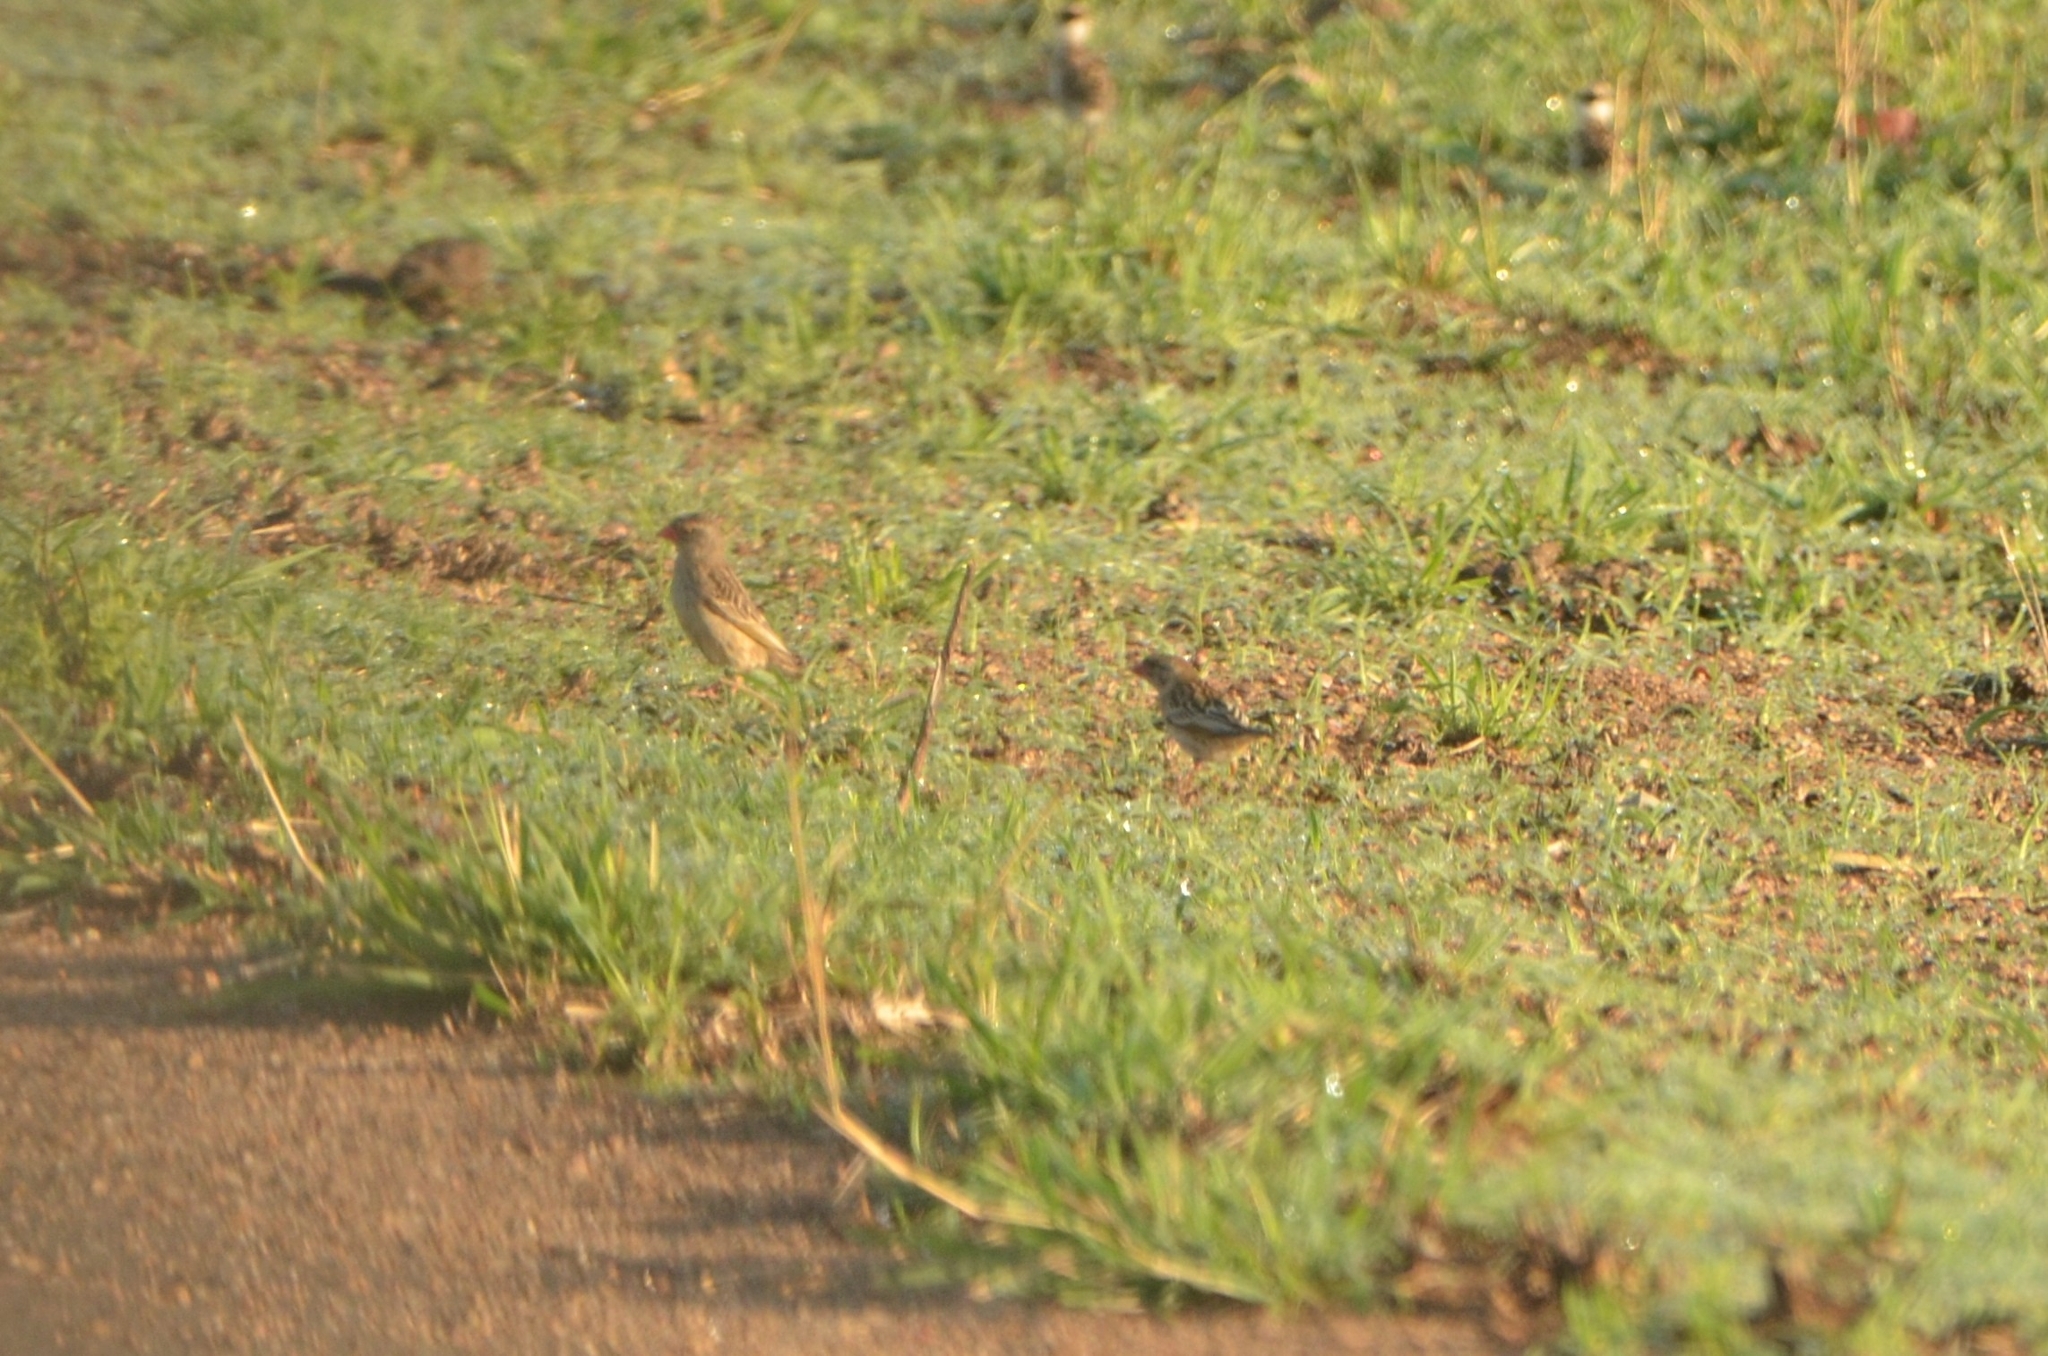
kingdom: Animalia
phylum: Chordata
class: Aves
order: Passeriformes
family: Ploceidae
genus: Quelea
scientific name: Quelea quelea
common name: Red-billed quelea
